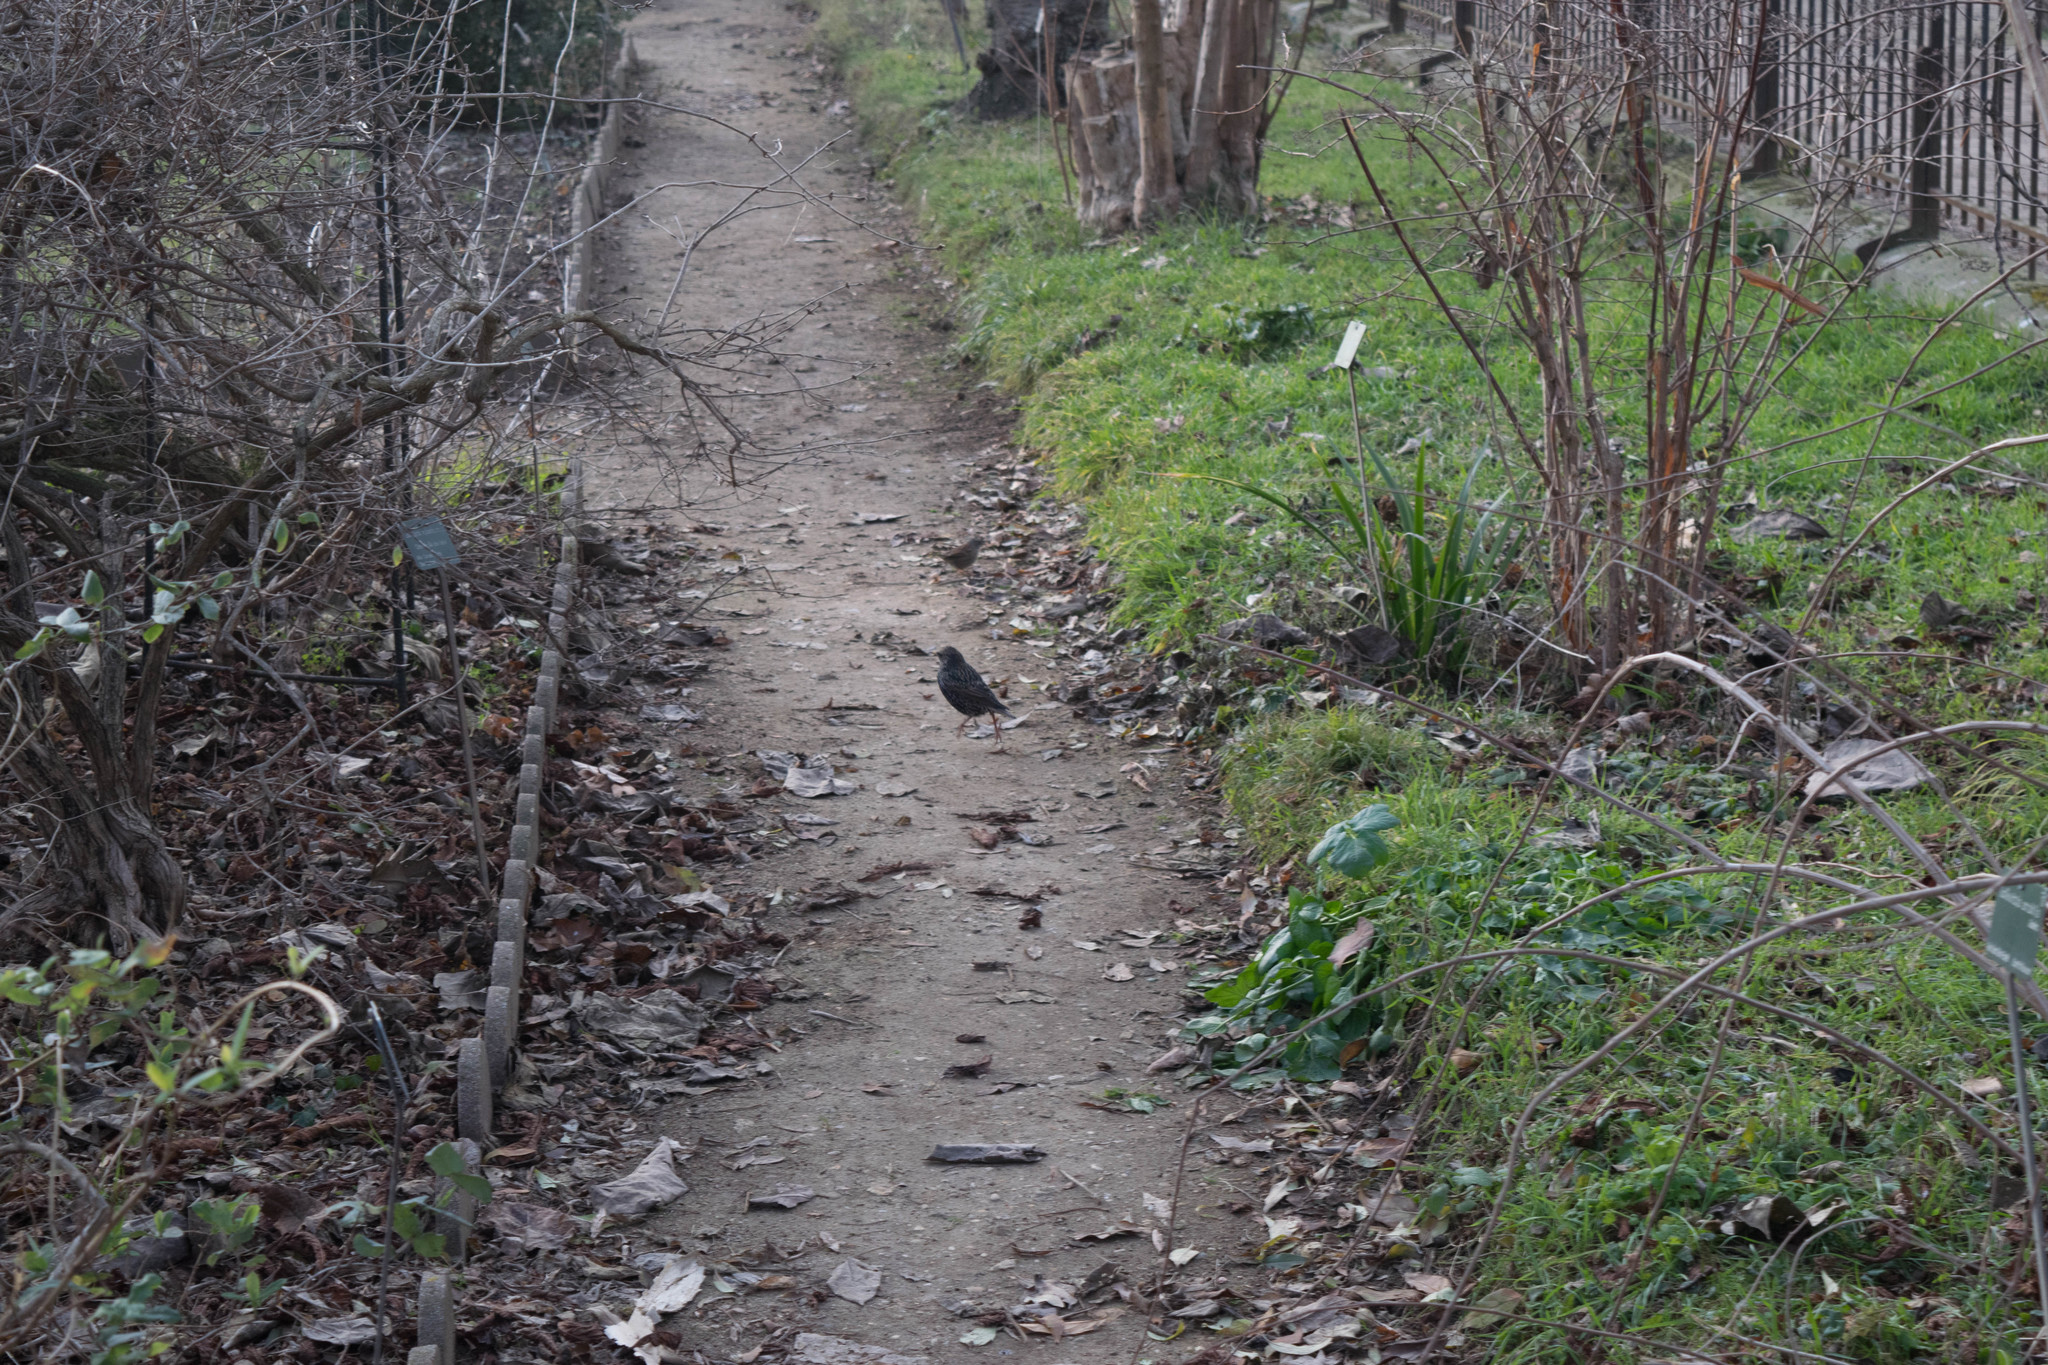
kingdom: Animalia
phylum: Chordata
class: Aves
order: Passeriformes
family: Sturnidae
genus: Sturnus
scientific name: Sturnus vulgaris
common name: Common starling
